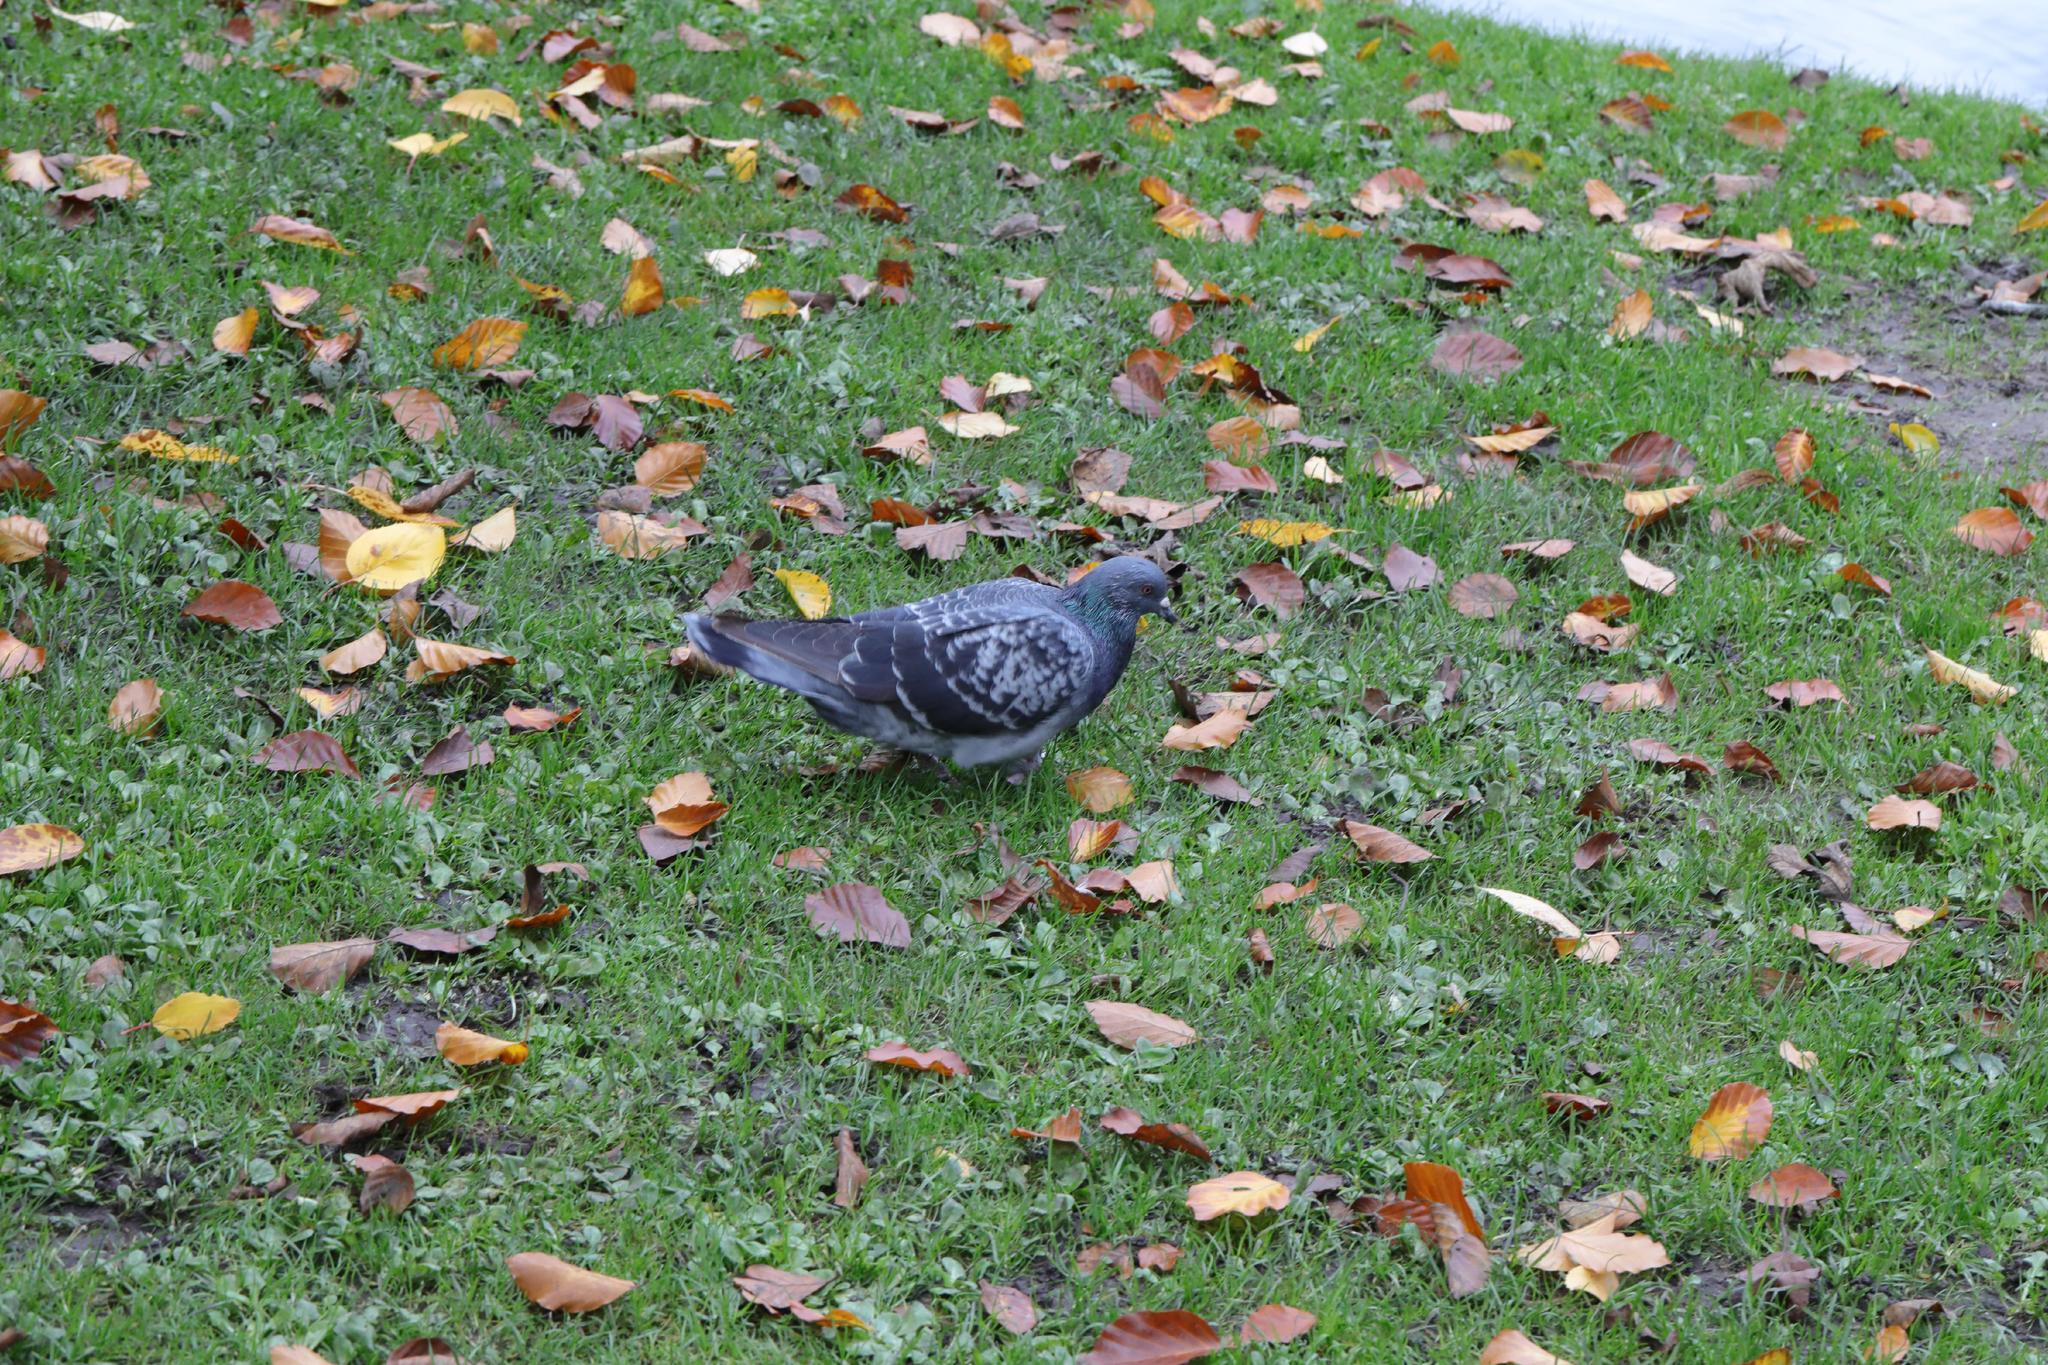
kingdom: Animalia
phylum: Chordata
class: Aves
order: Columbiformes
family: Columbidae
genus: Columba
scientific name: Columba livia
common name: Rock pigeon
